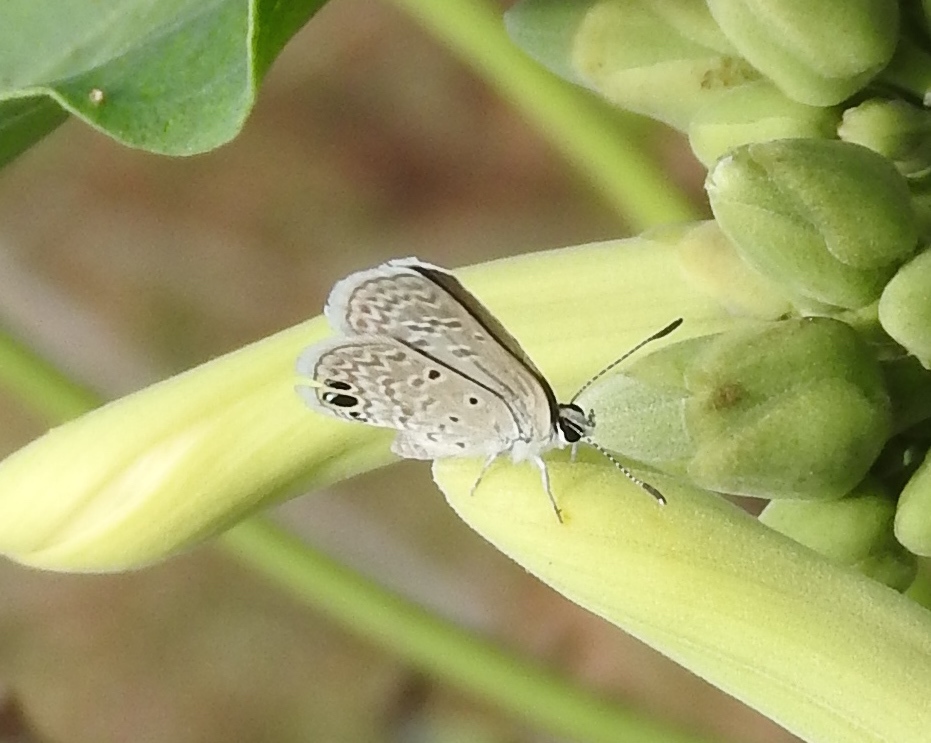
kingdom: Animalia
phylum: Arthropoda
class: Insecta
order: Lepidoptera
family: Lycaenidae
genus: Hemiargus
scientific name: Hemiargus ceraunus
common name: Ceraunus blue
